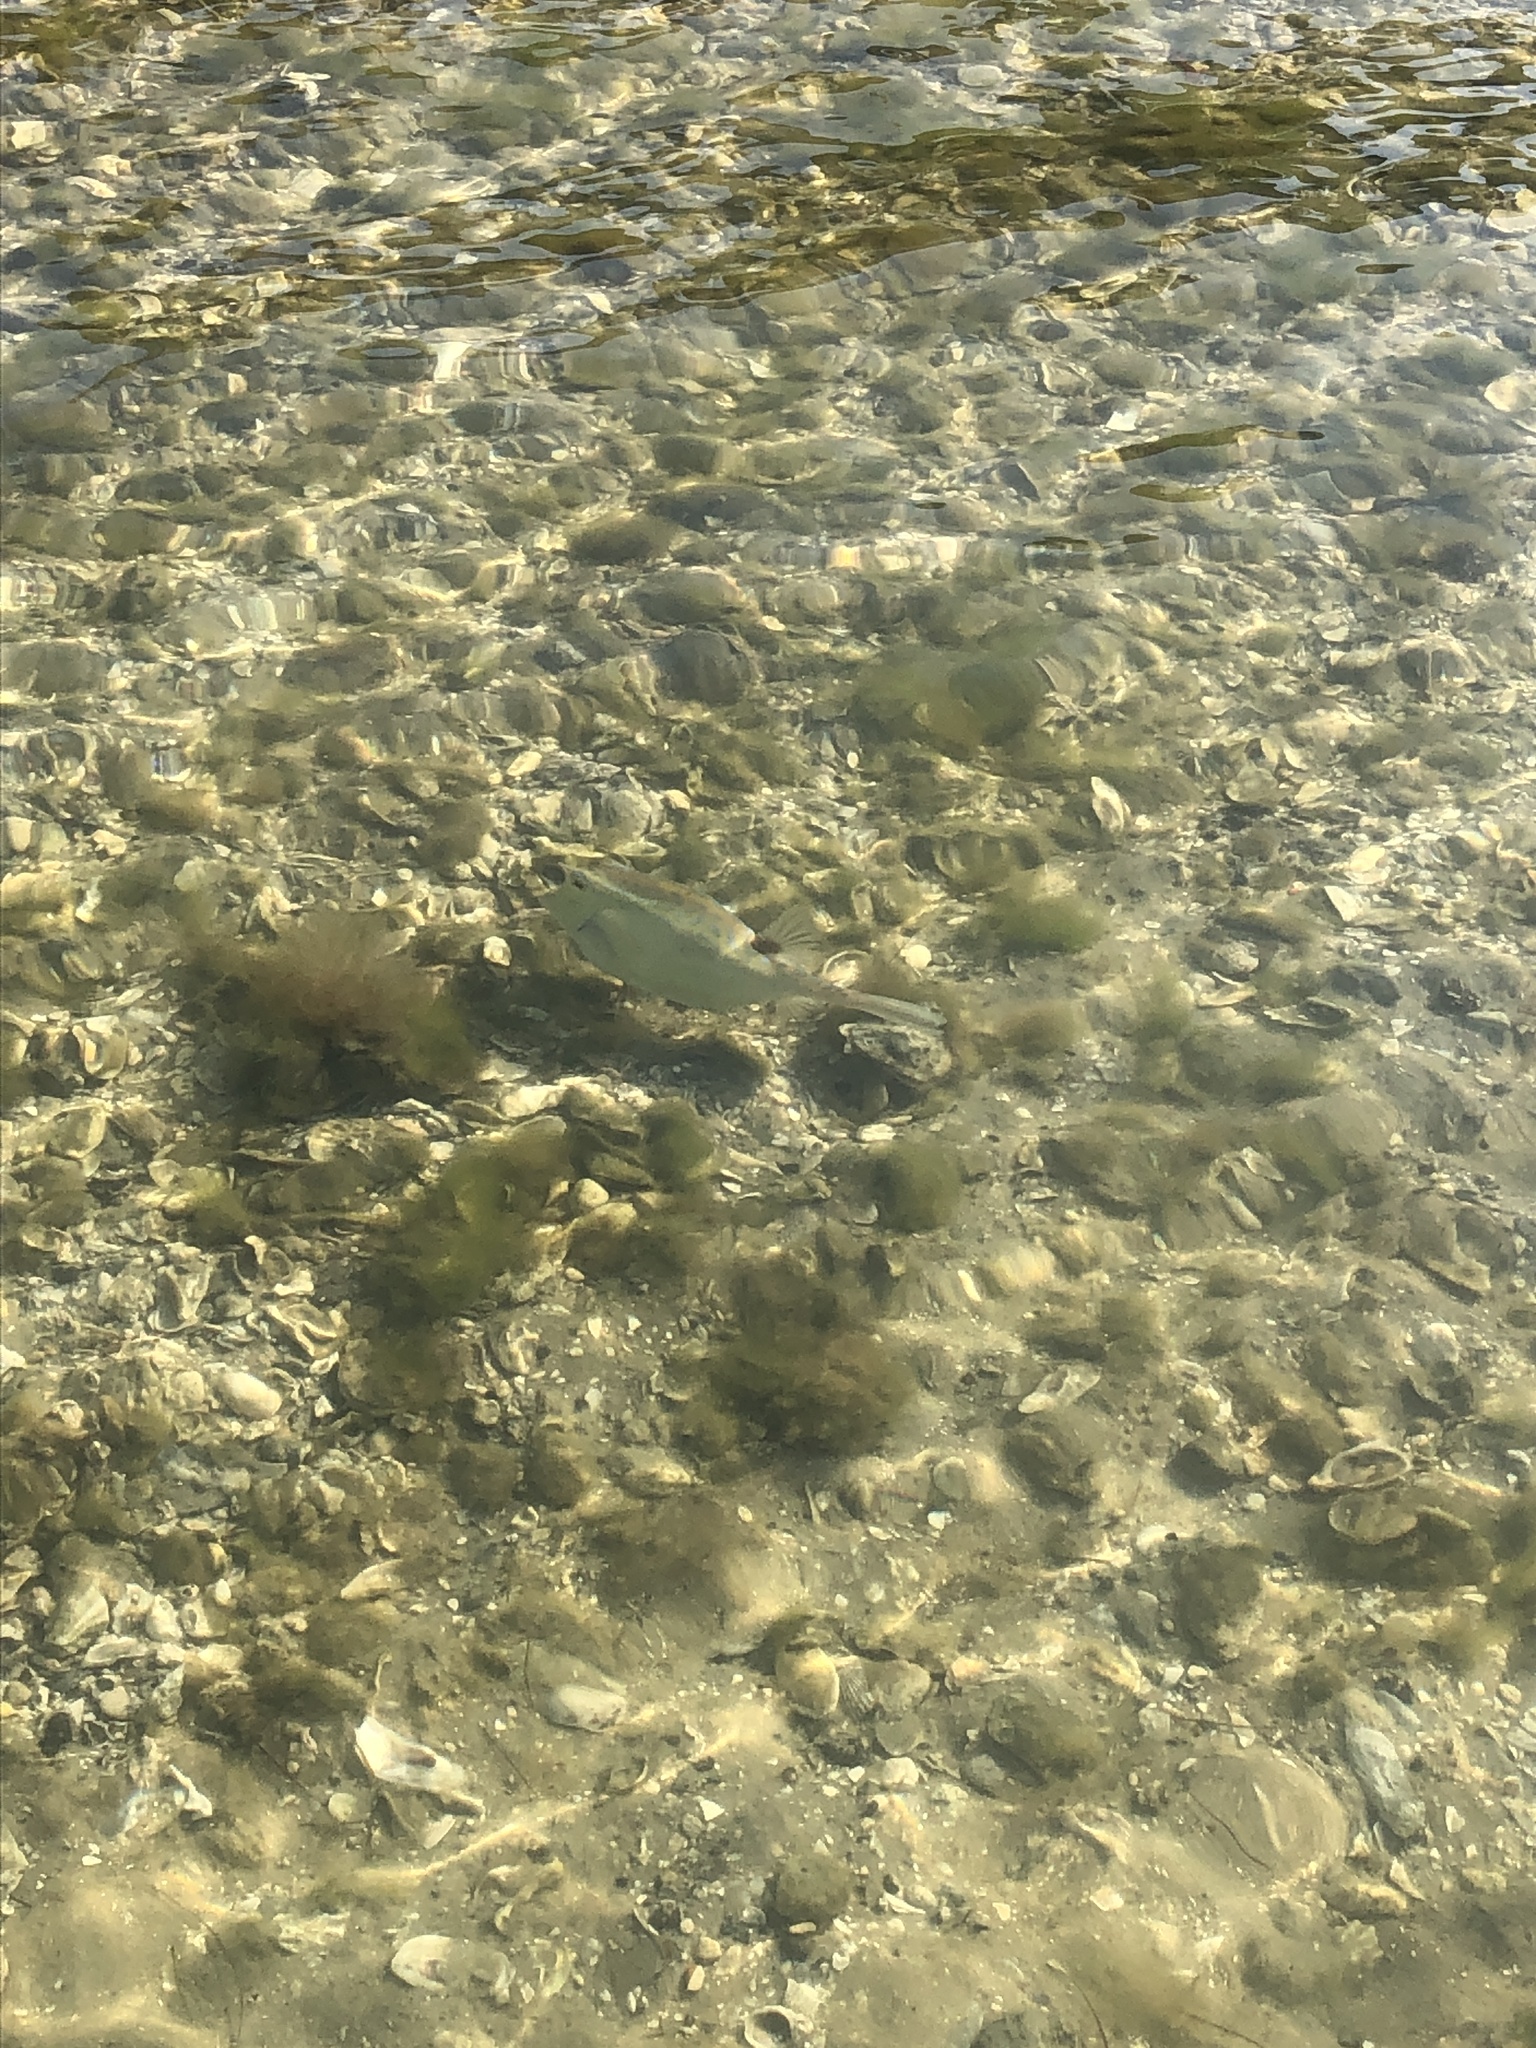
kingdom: Animalia
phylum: Chordata
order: Tetraodontiformes
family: Ostraciidae
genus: Acanthostracion
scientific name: Acanthostracion quadricornis
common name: Scrawled cowfish
